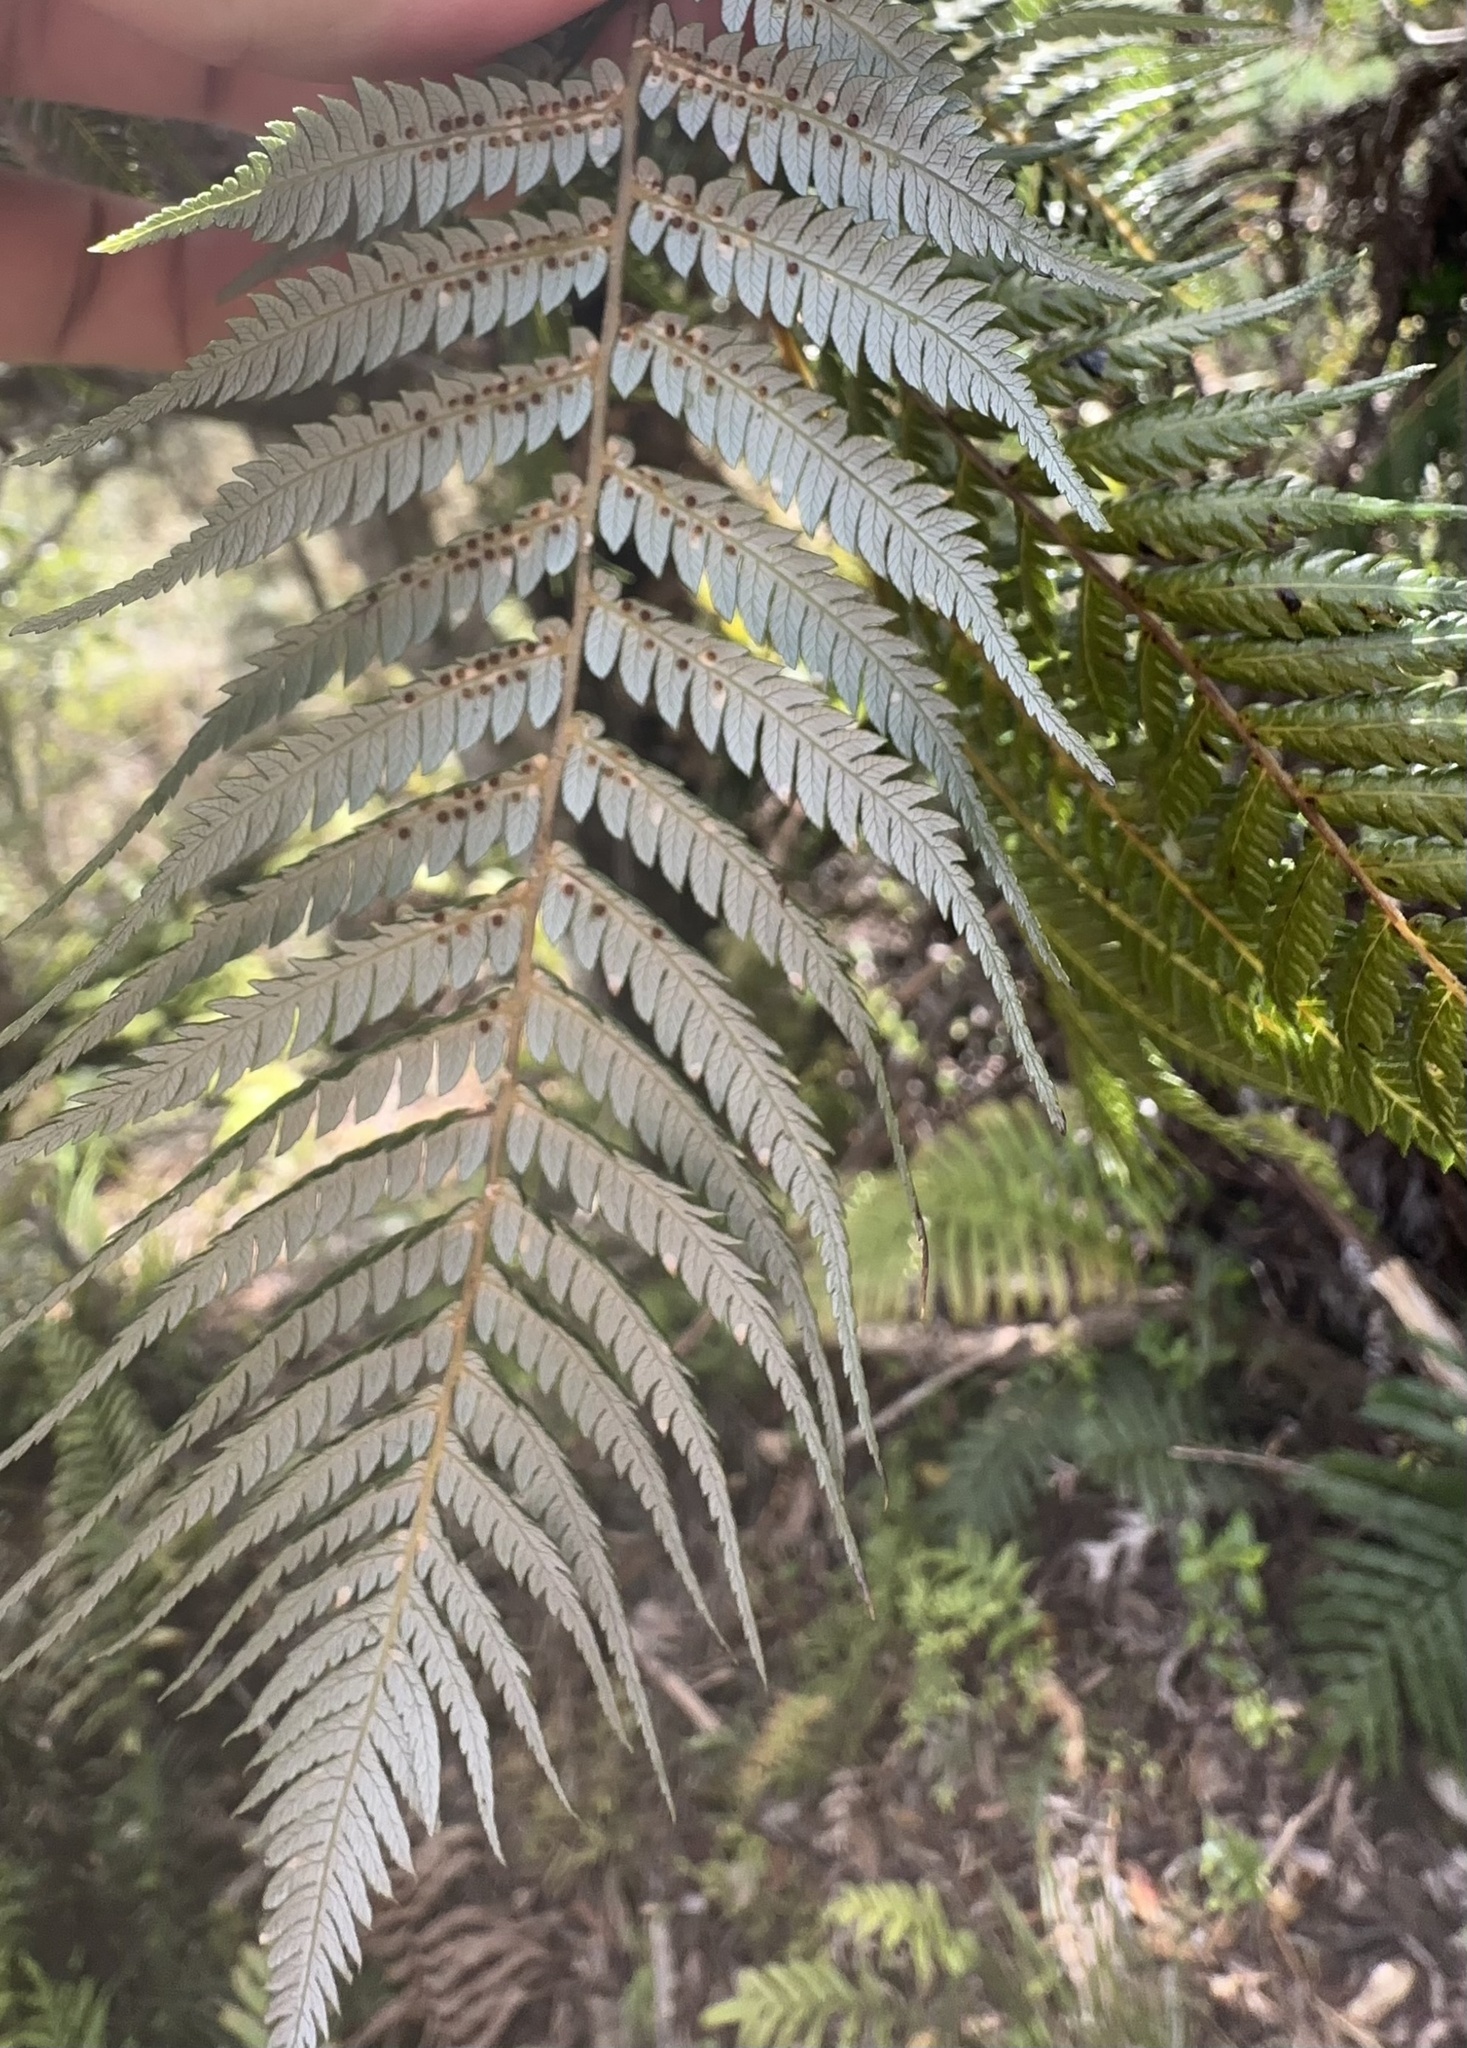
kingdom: Plantae
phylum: Tracheophyta
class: Polypodiopsida
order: Cyatheales
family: Cyatheaceae
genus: Alsophila
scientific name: Alsophila dealbata
